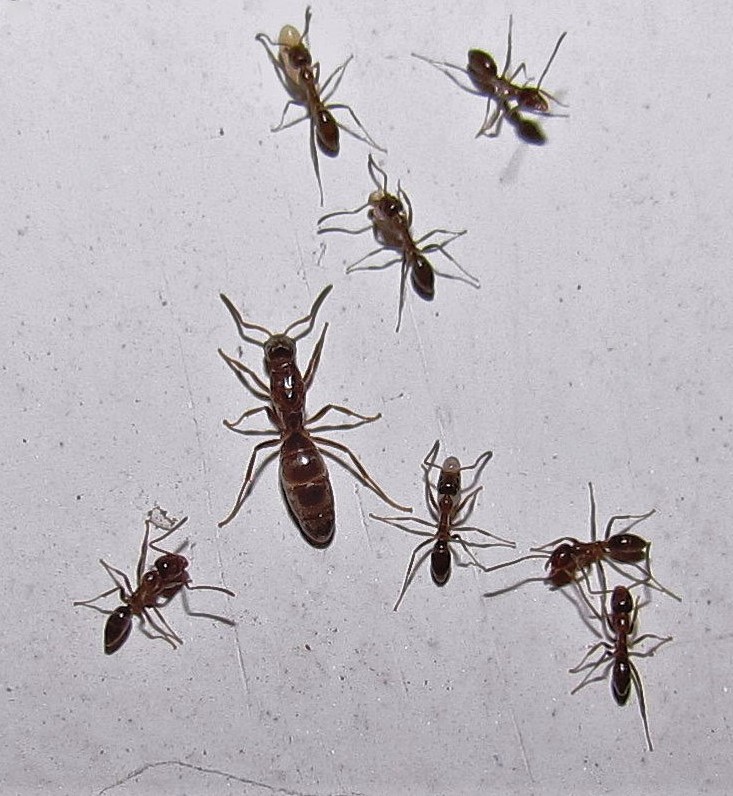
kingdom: Animalia
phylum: Arthropoda
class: Insecta
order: Hymenoptera
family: Formicidae
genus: Linepithema
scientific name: Linepithema humile
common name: Argentine ant
